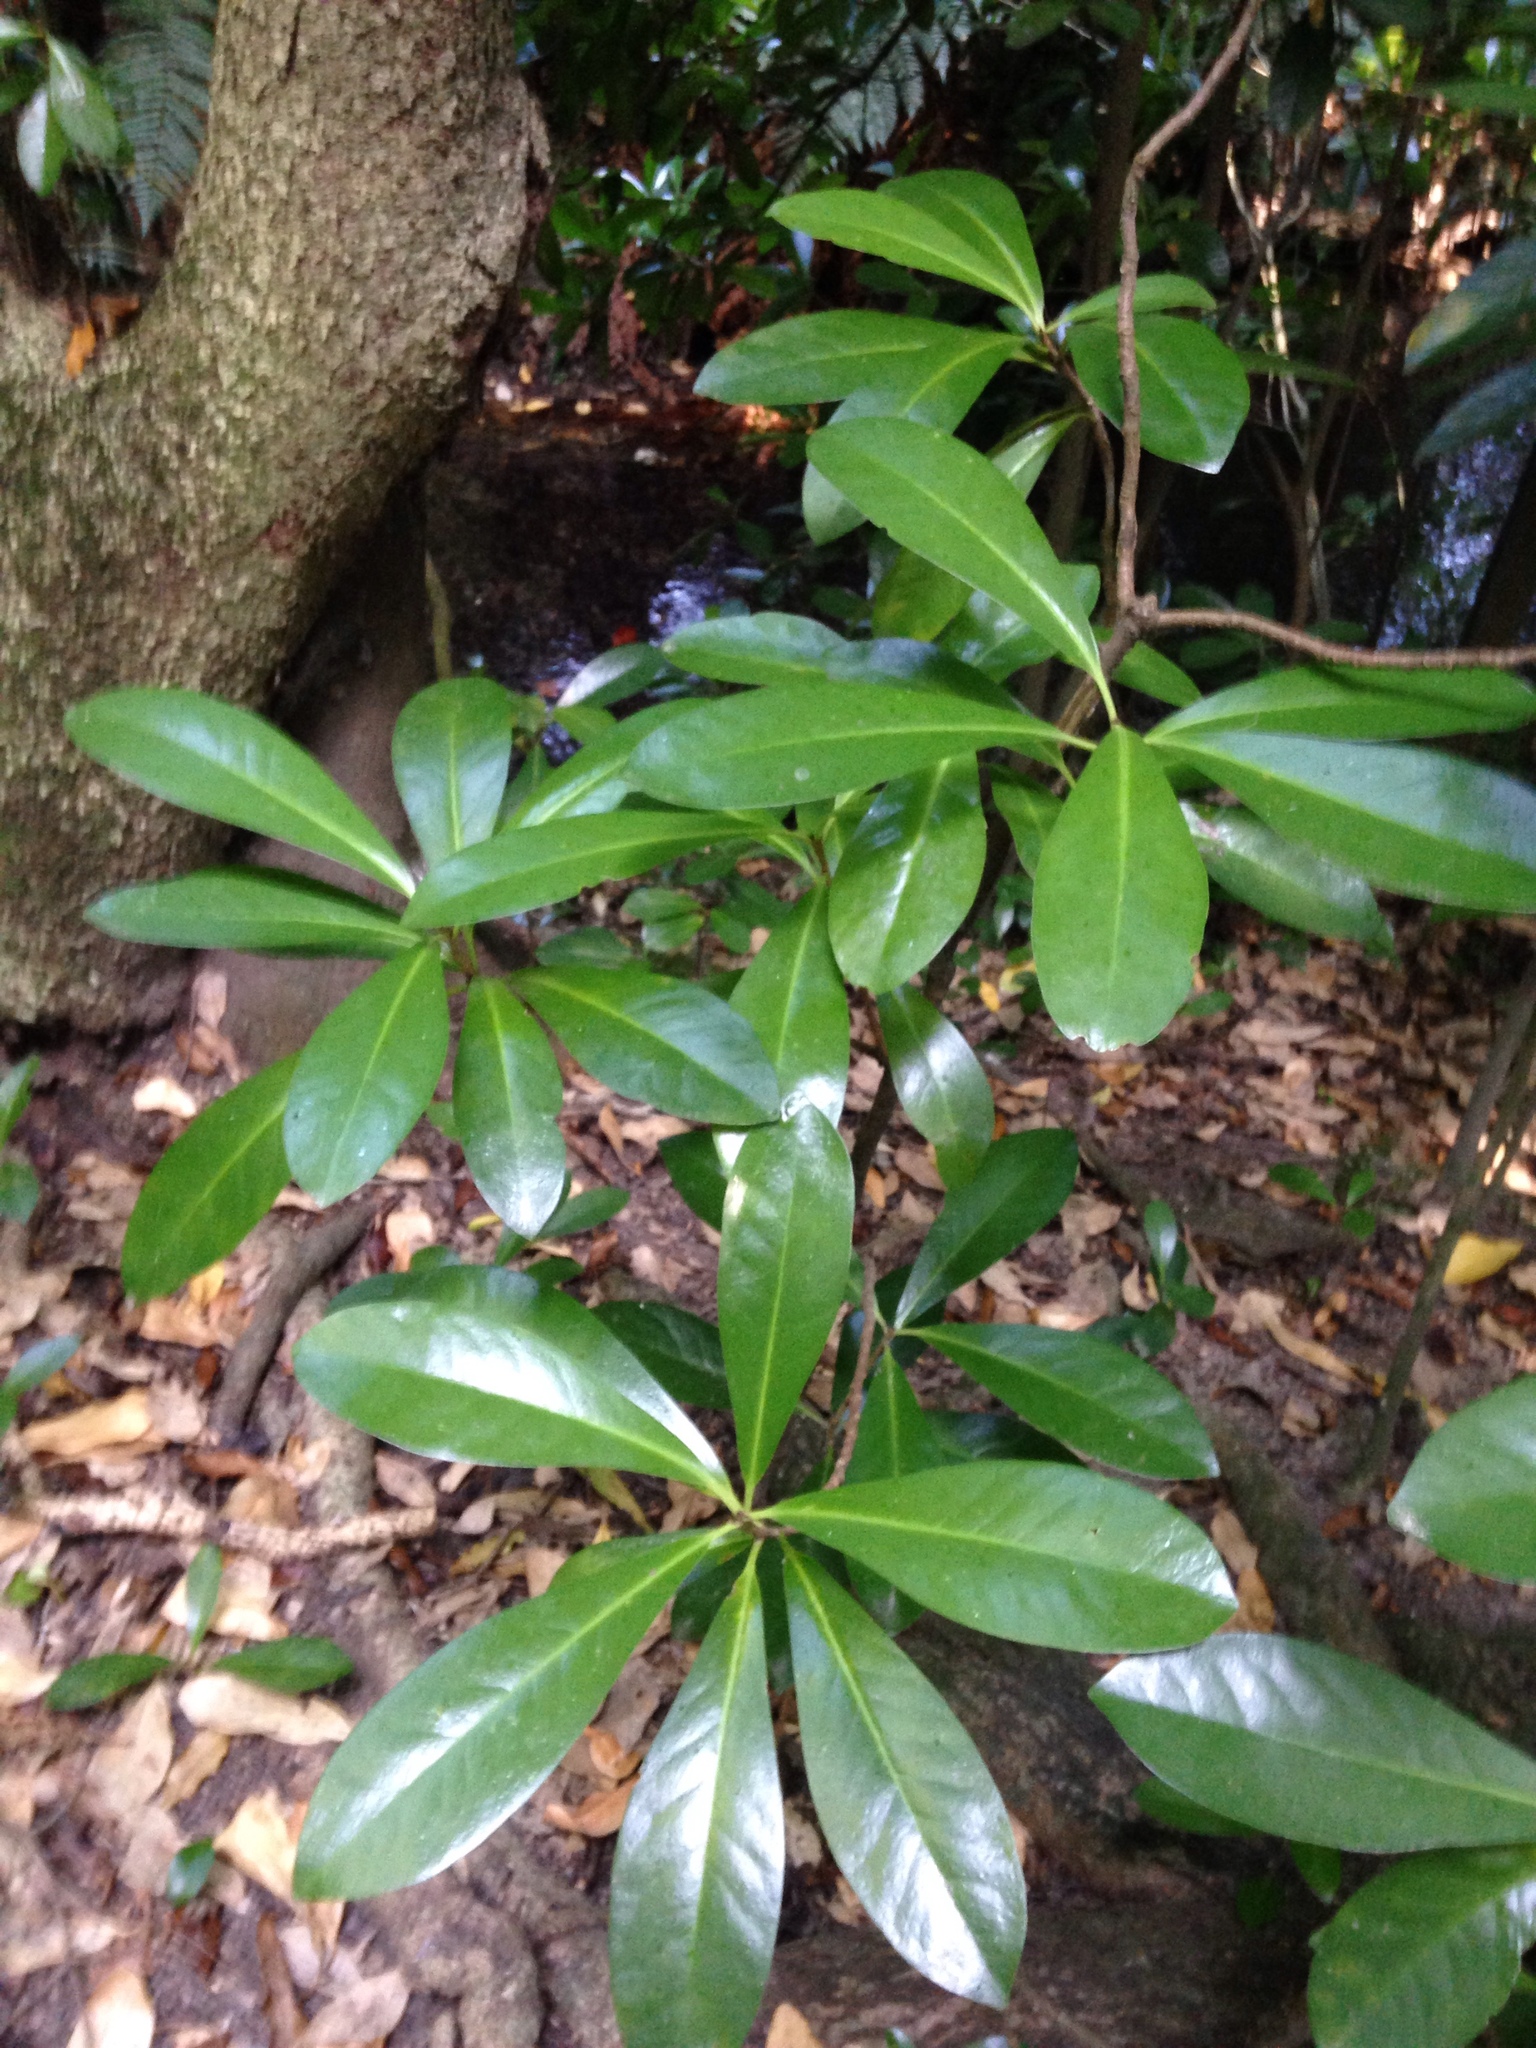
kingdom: Plantae
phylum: Tracheophyta
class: Magnoliopsida
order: Cucurbitales
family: Corynocarpaceae
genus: Corynocarpus
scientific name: Corynocarpus laevigatus
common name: New zealand laurel
